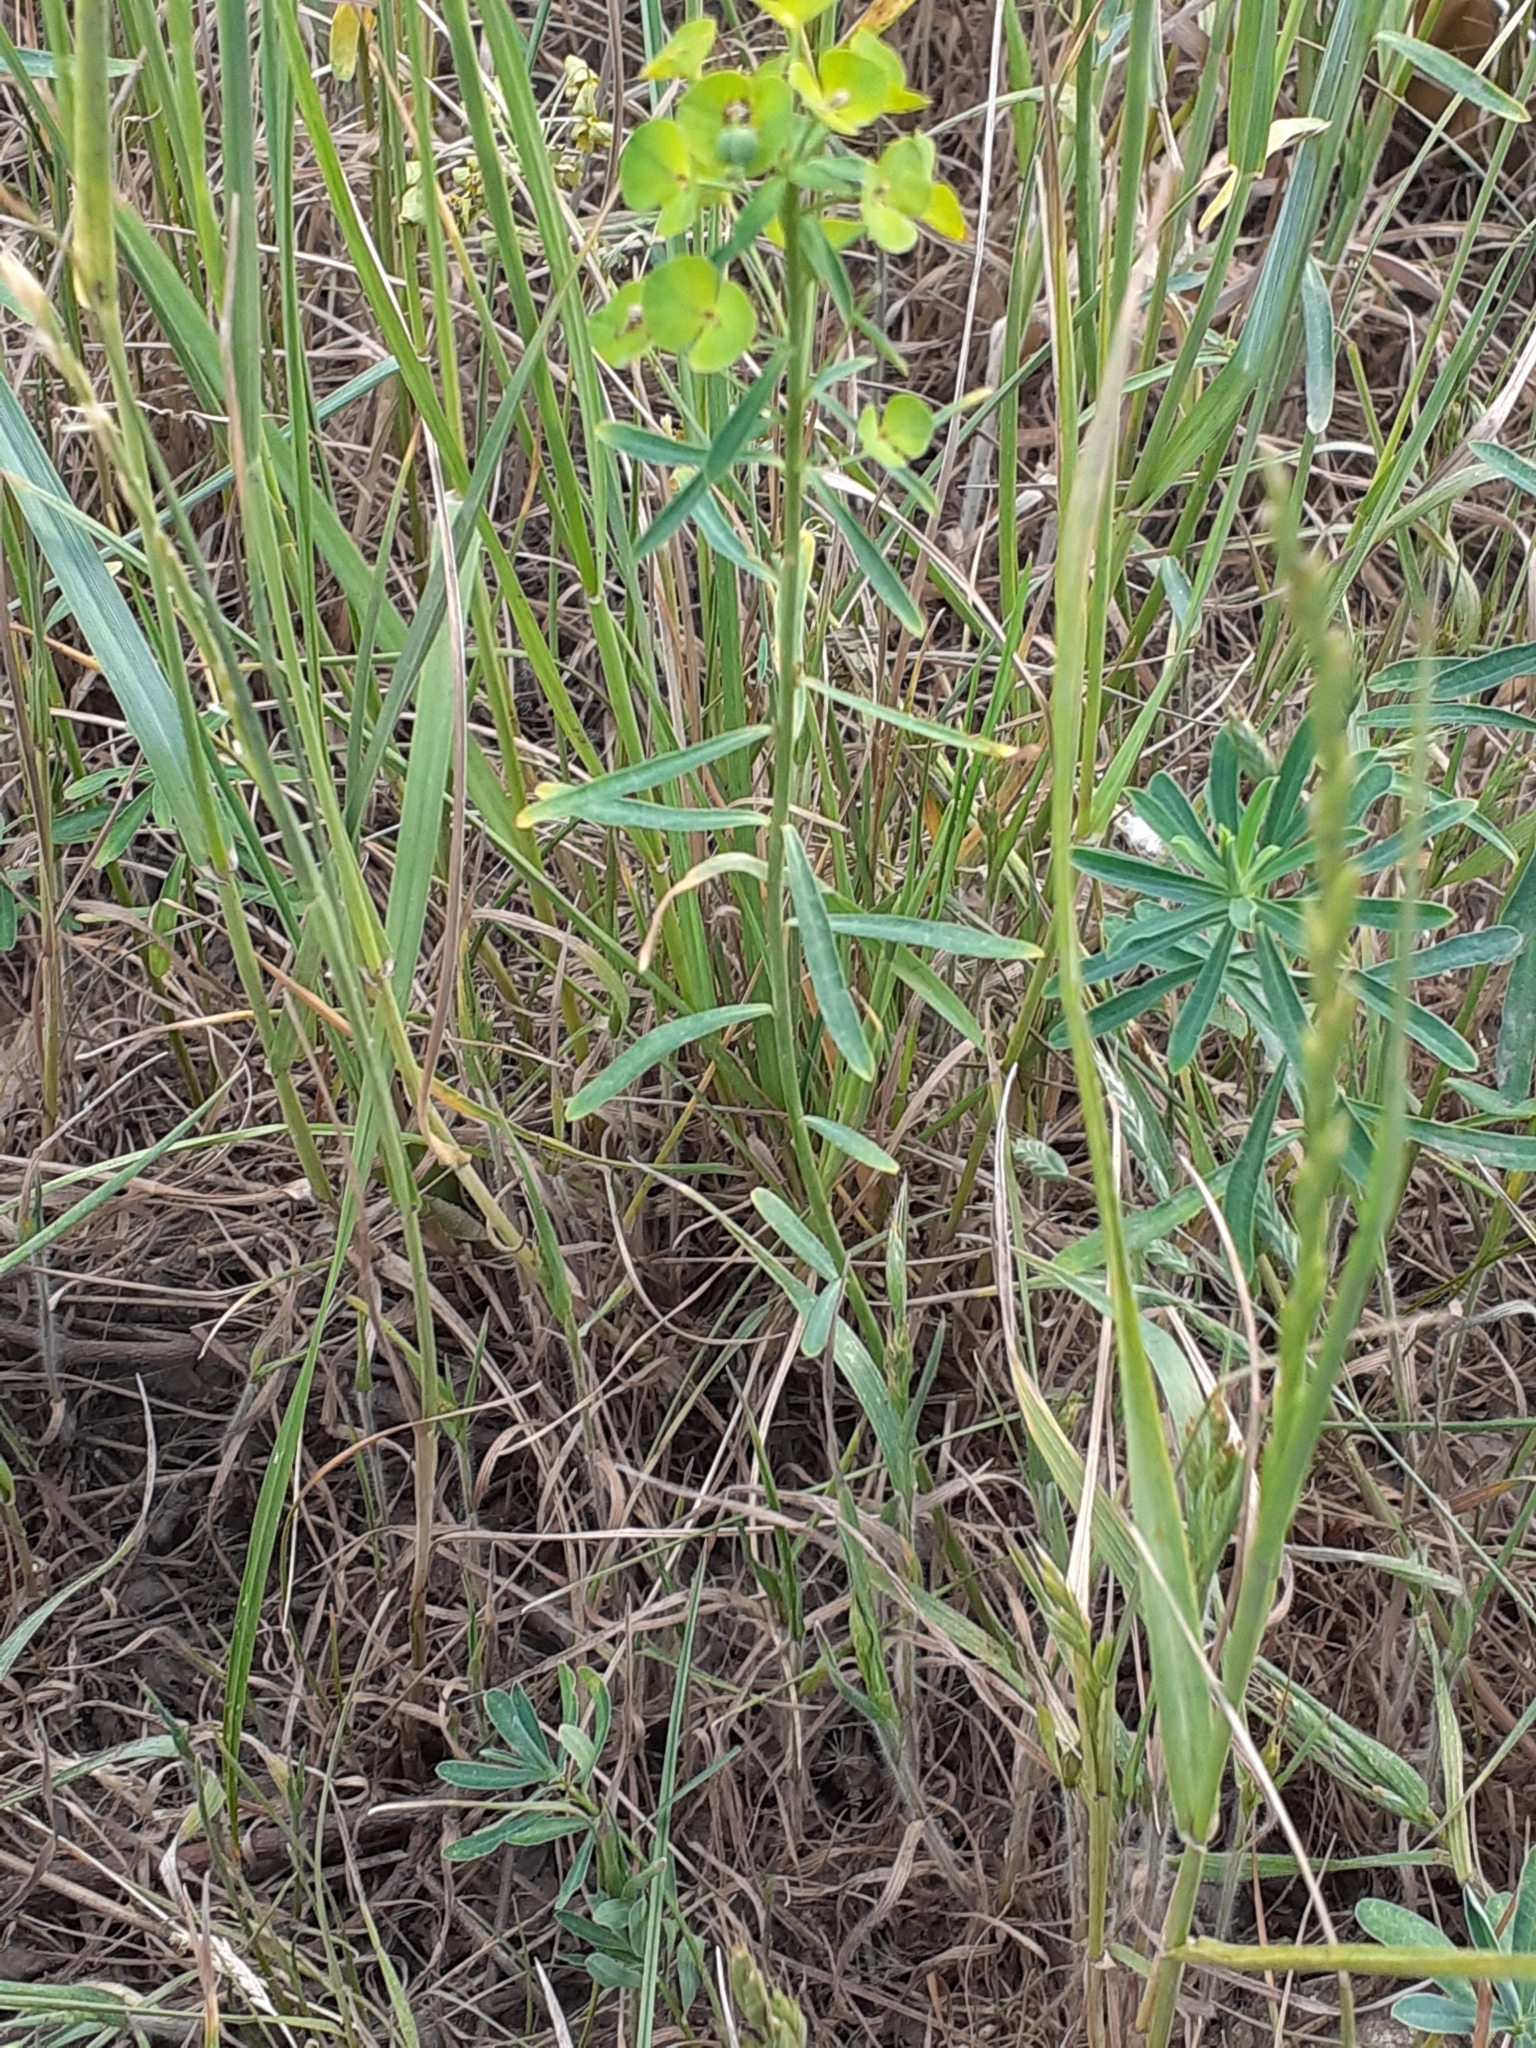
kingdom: Plantae
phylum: Tracheophyta
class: Magnoliopsida
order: Malpighiales
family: Euphorbiaceae
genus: Euphorbia
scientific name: Euphorbia esula
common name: Leafy spurge
